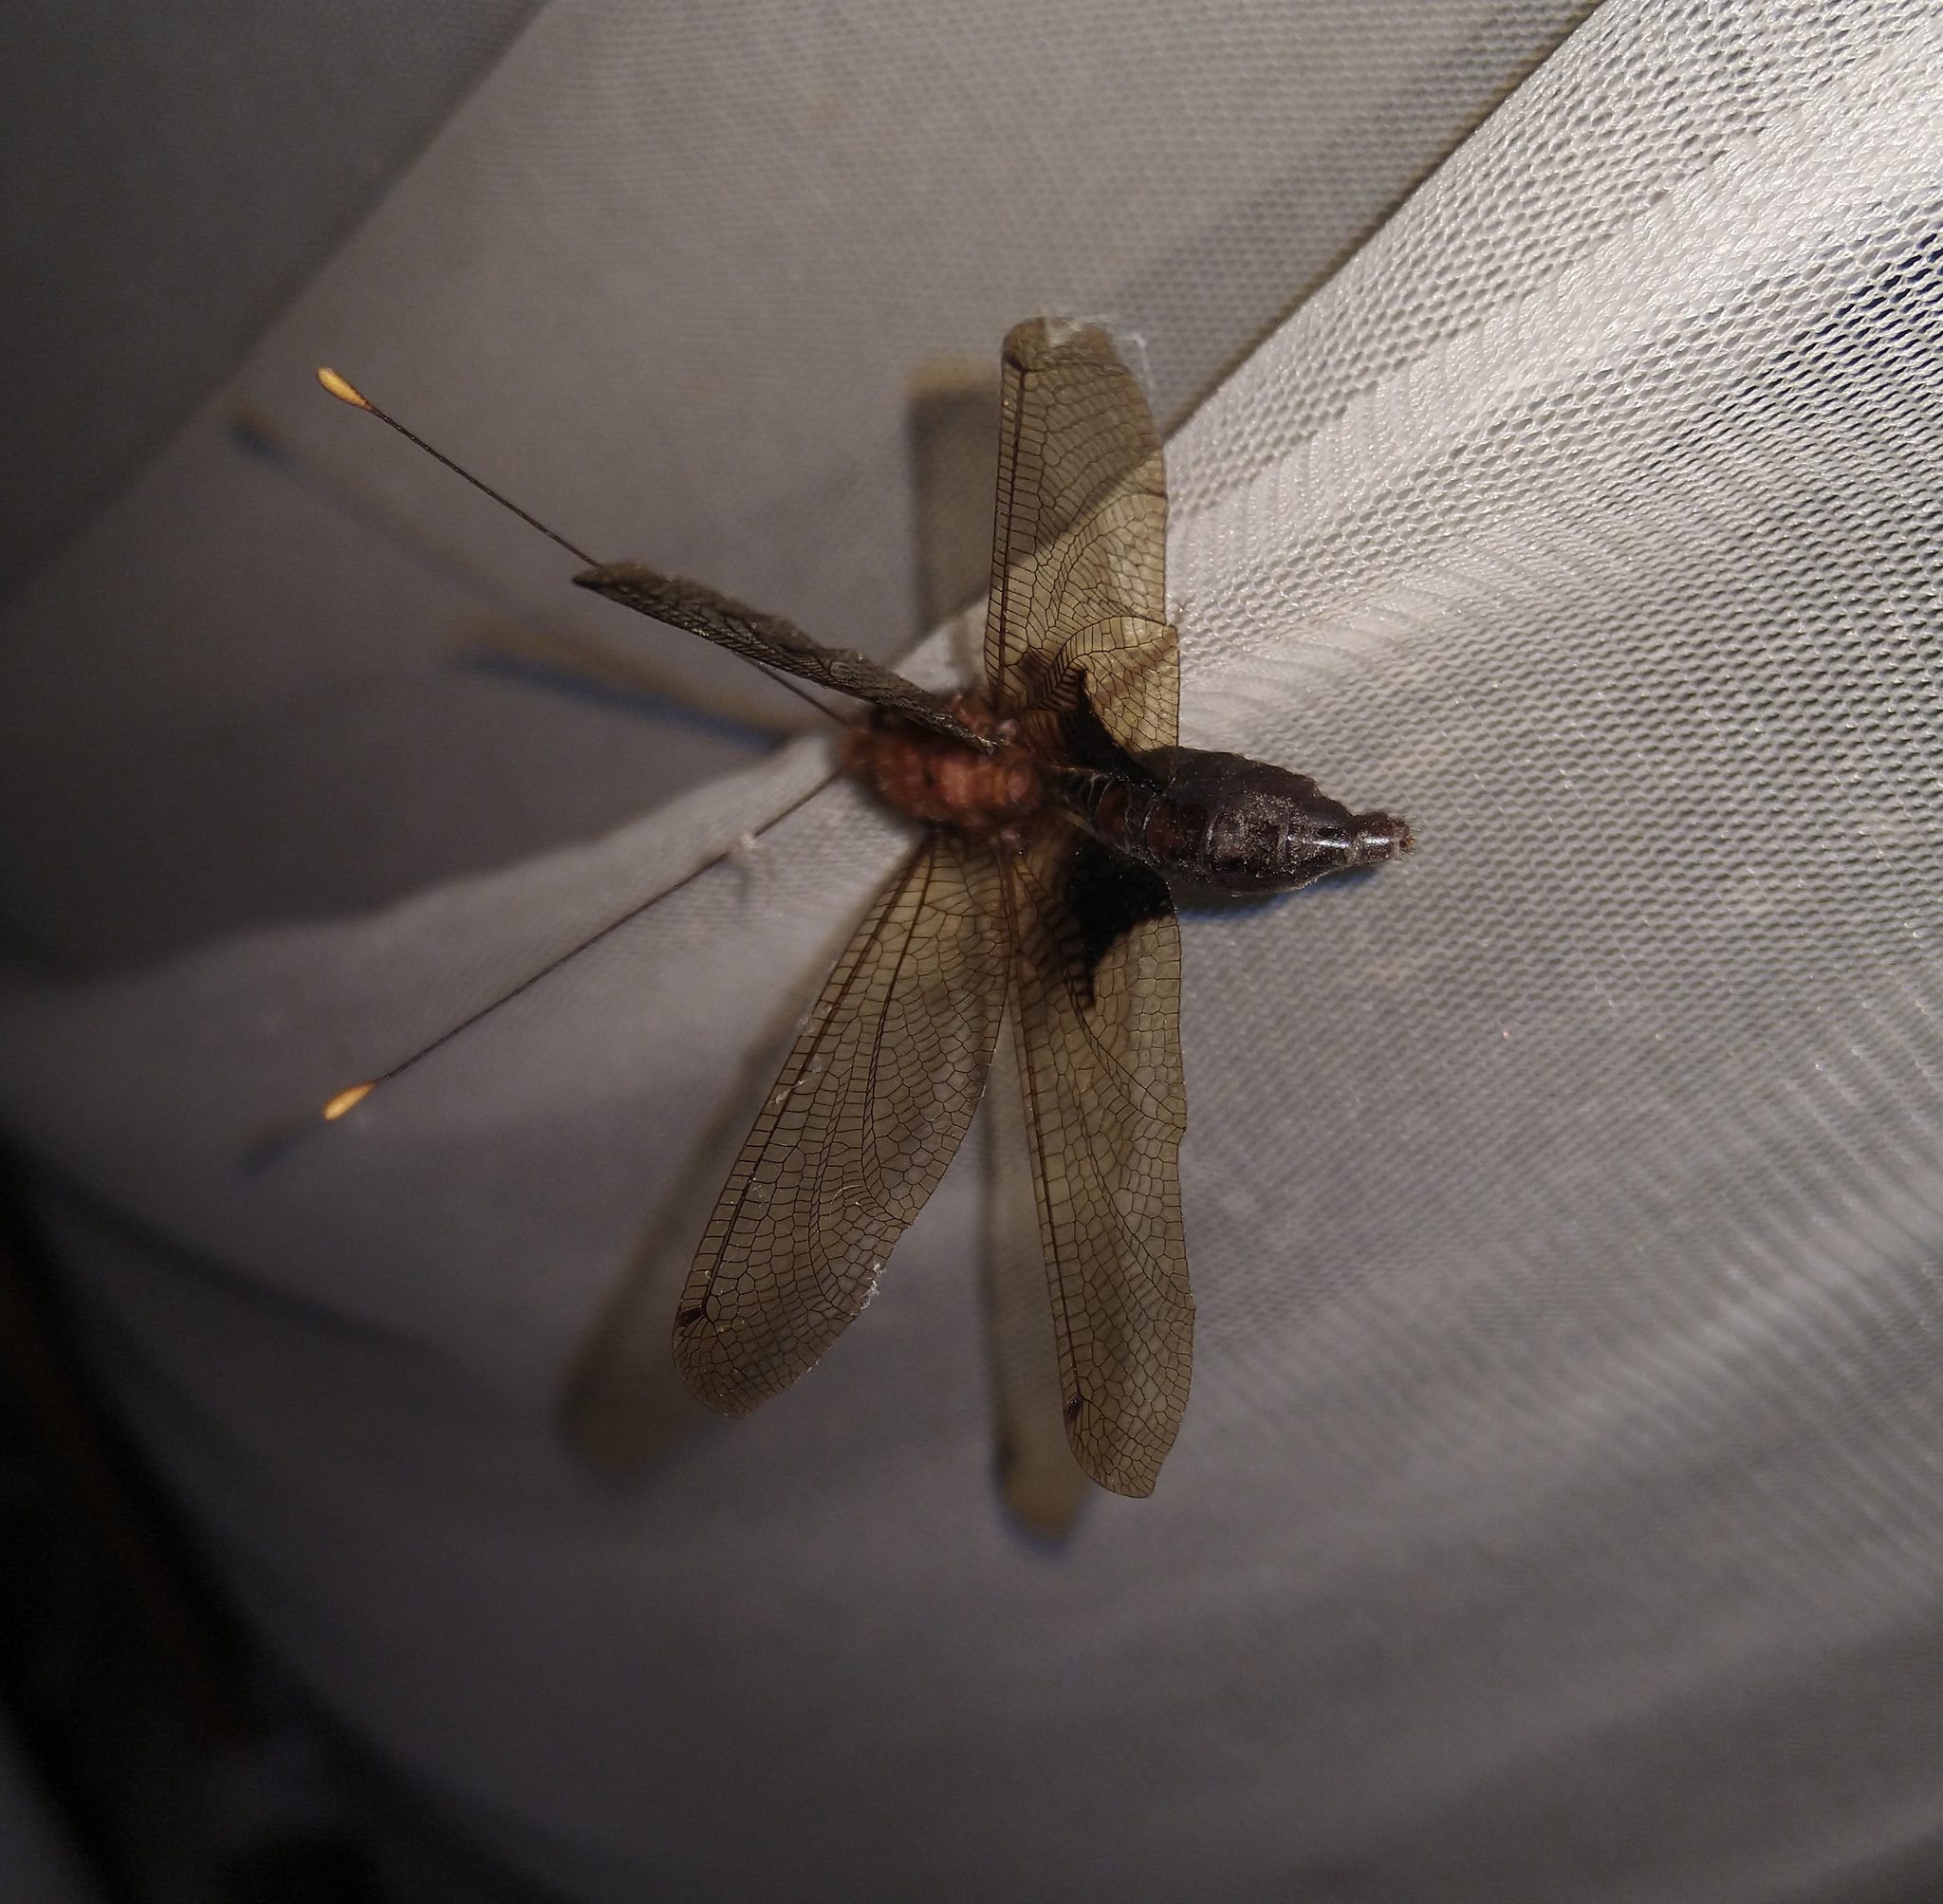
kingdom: Animalia
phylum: Arthropoda
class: Insecta
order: Neuroptera
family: Ascalaphidae
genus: Cordulecerus
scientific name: Cordulecerus alopecinus
